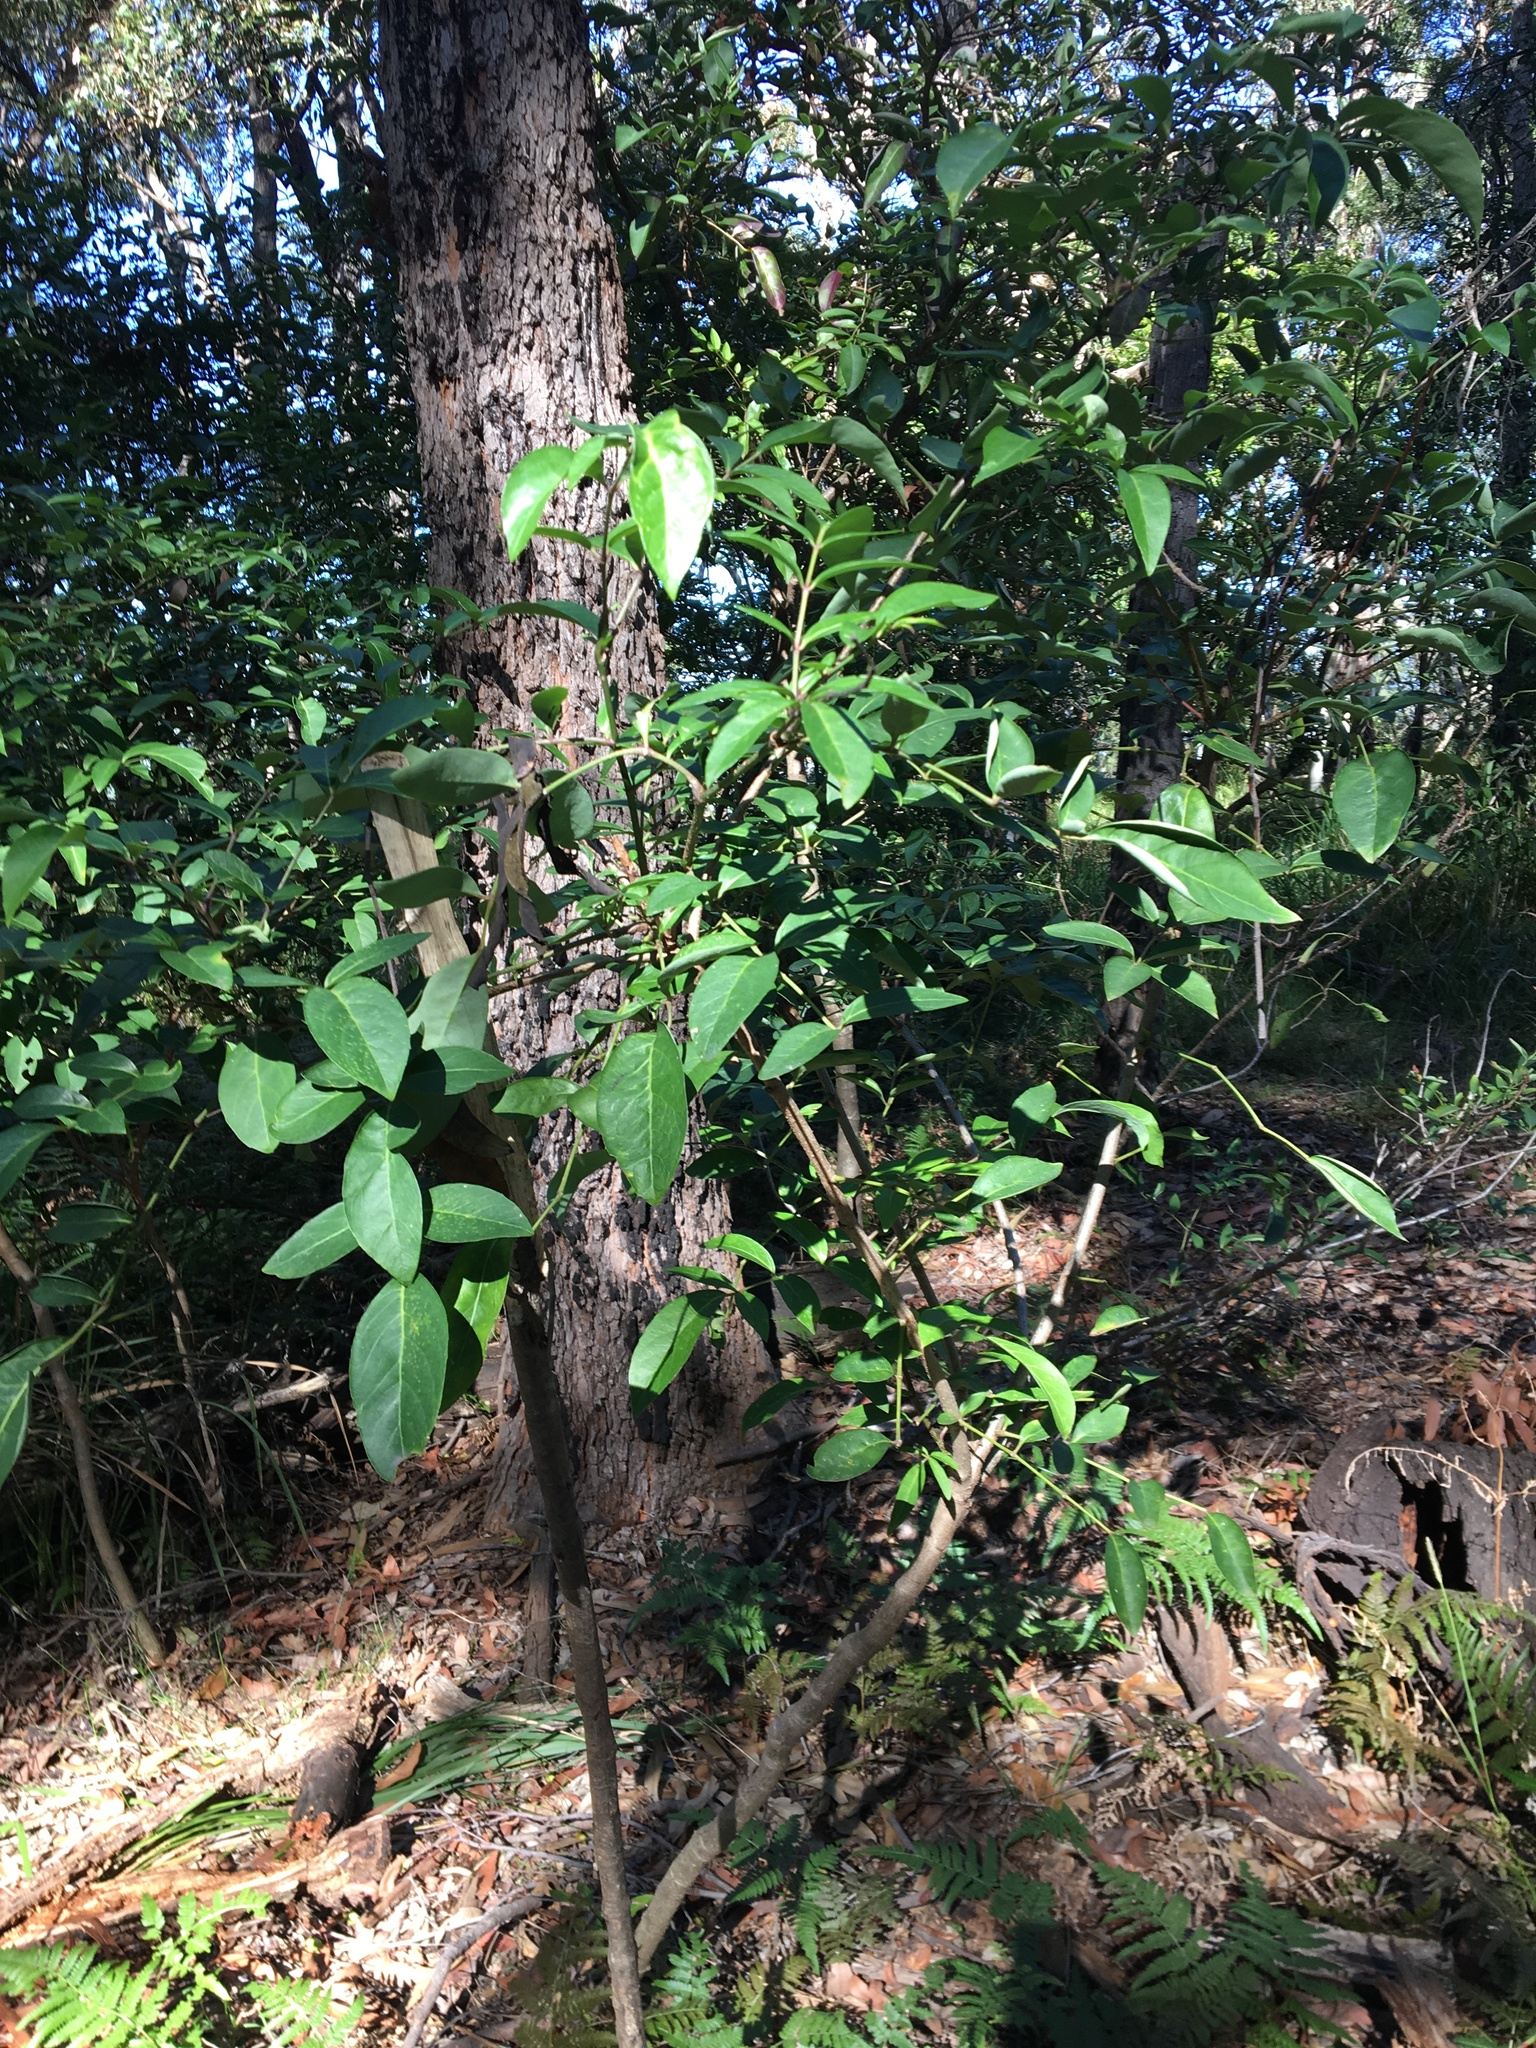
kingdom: Plantae
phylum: Tracheophyta
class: Magnoliopsida
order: Apiales
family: Araliaceae
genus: Polyscias
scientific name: Polyscias sambucifolia
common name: Elderberry-ash
